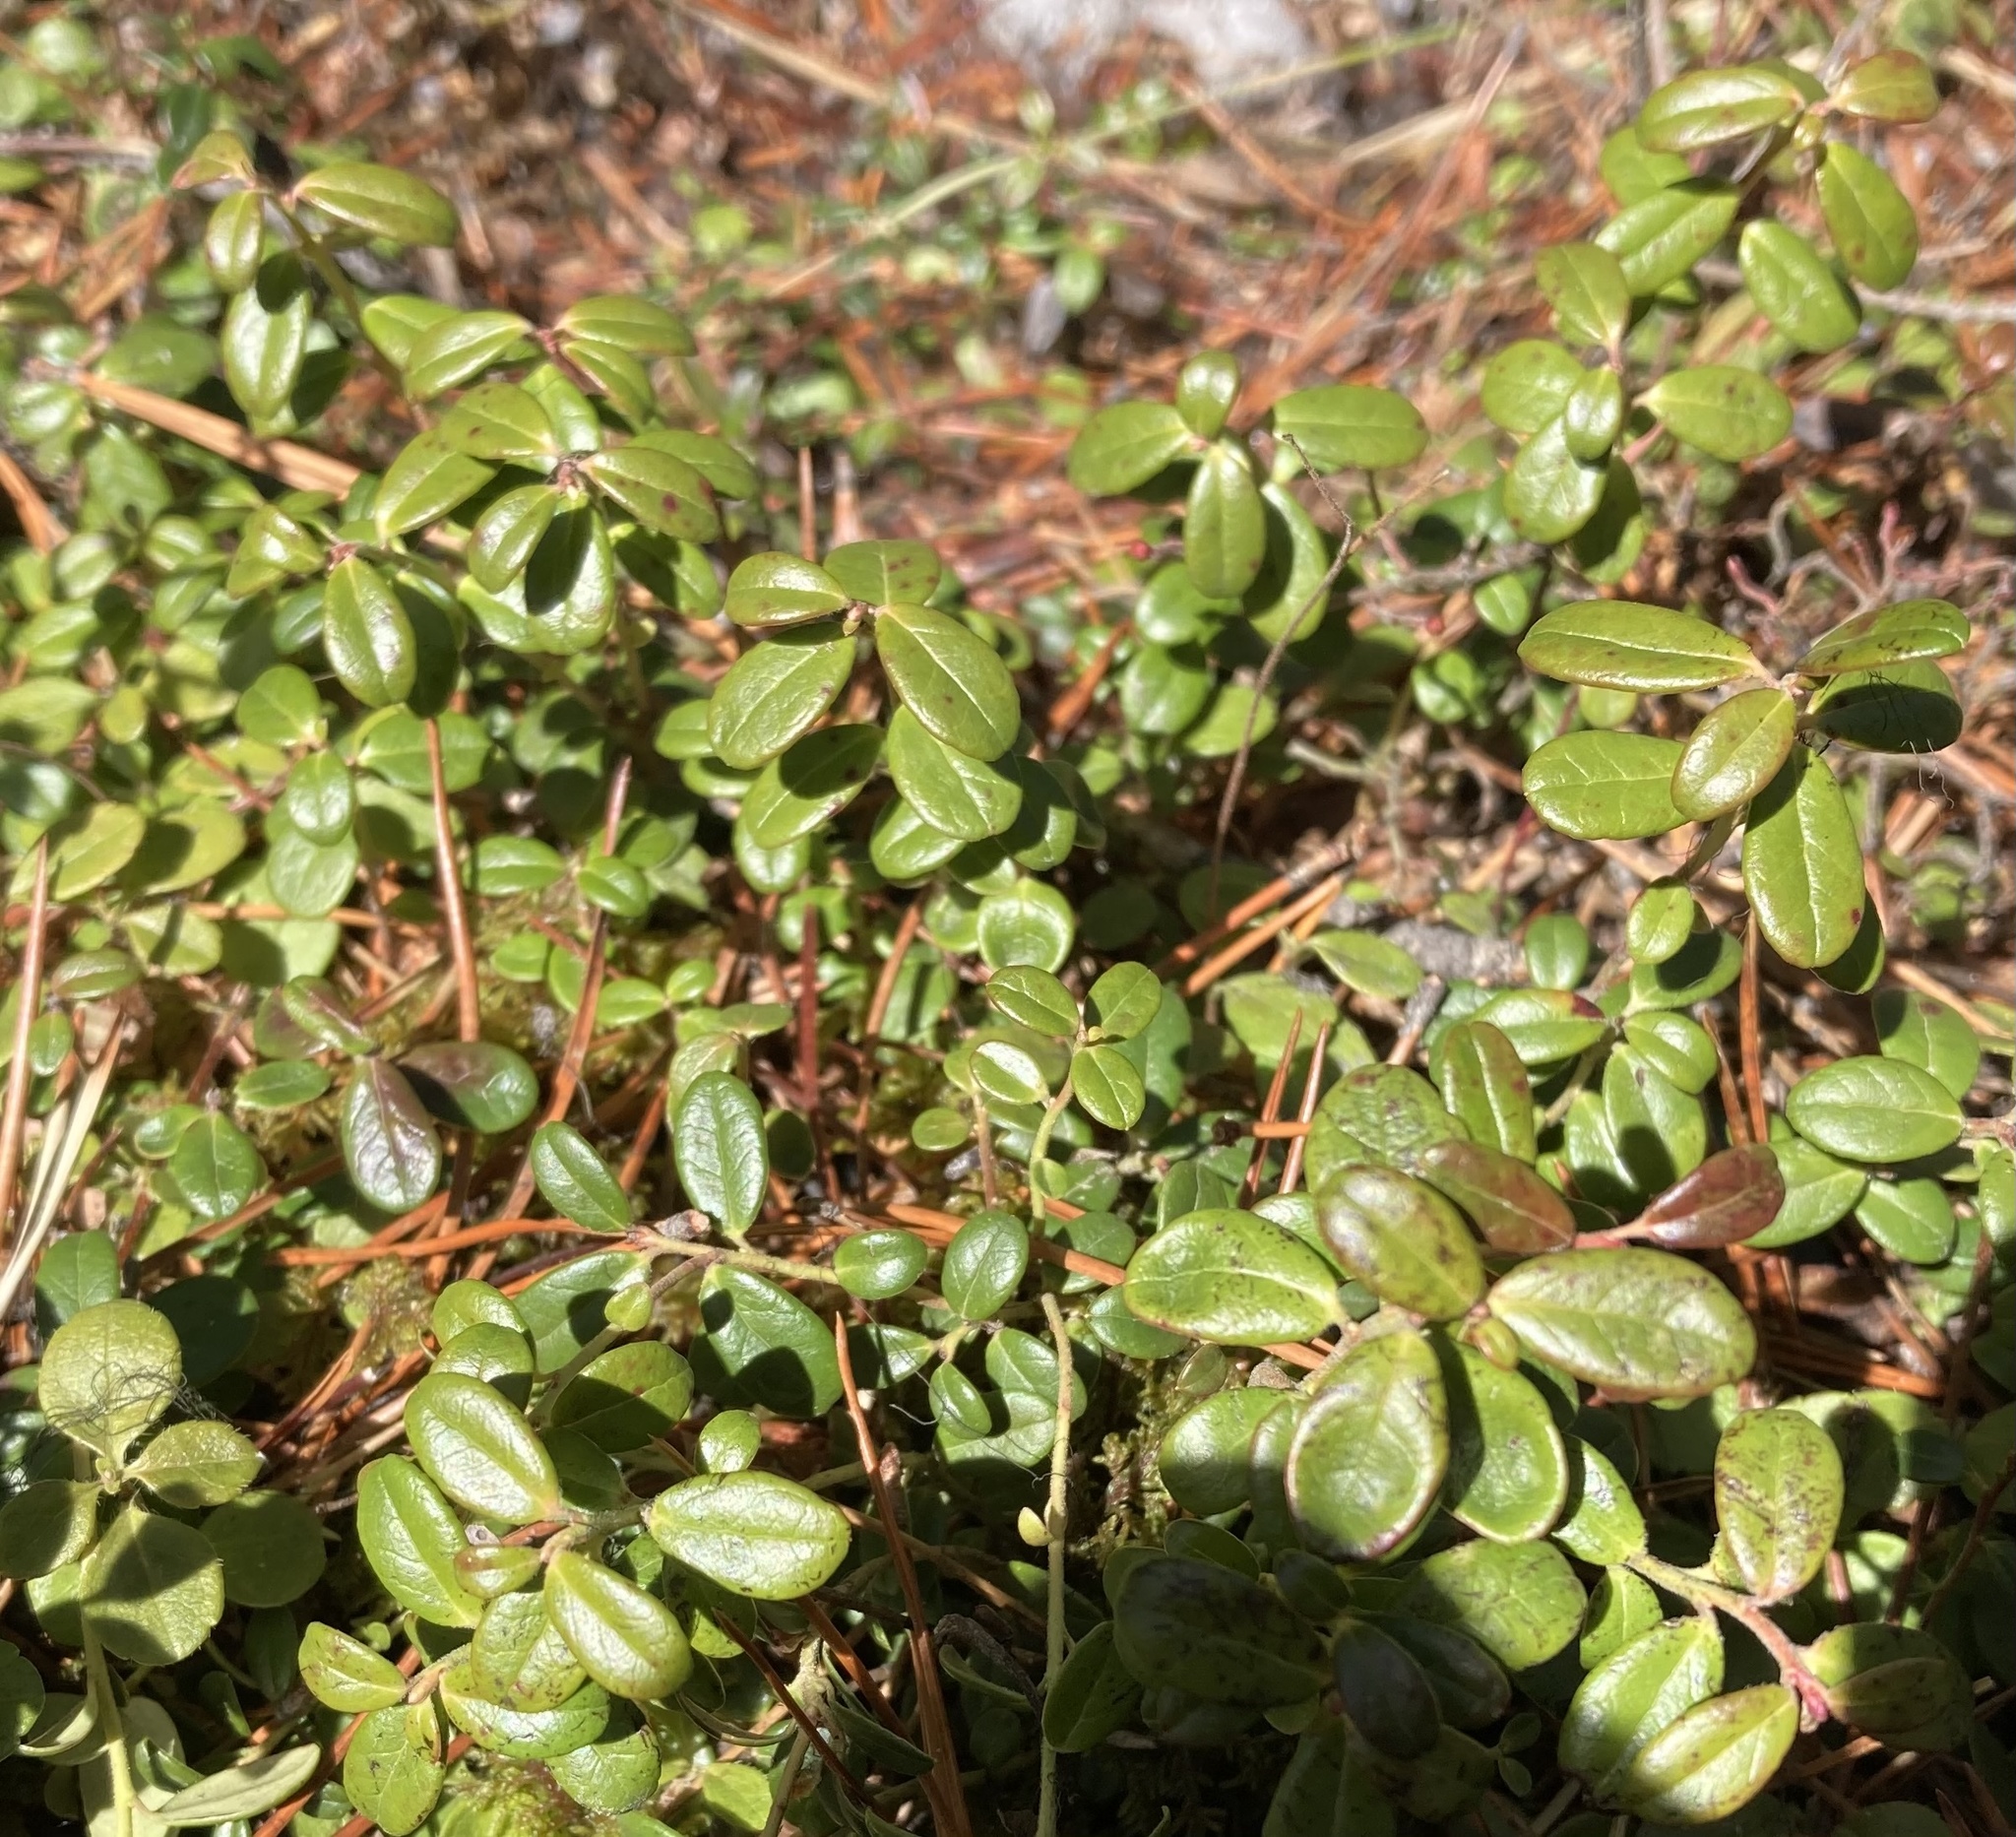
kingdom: Plantae
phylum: Tracheophyta
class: Magnoliopsida
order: Ericales
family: Ericaceae
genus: Vaccinium
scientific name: Vaccinium vitis-idaea
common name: Cowberry
